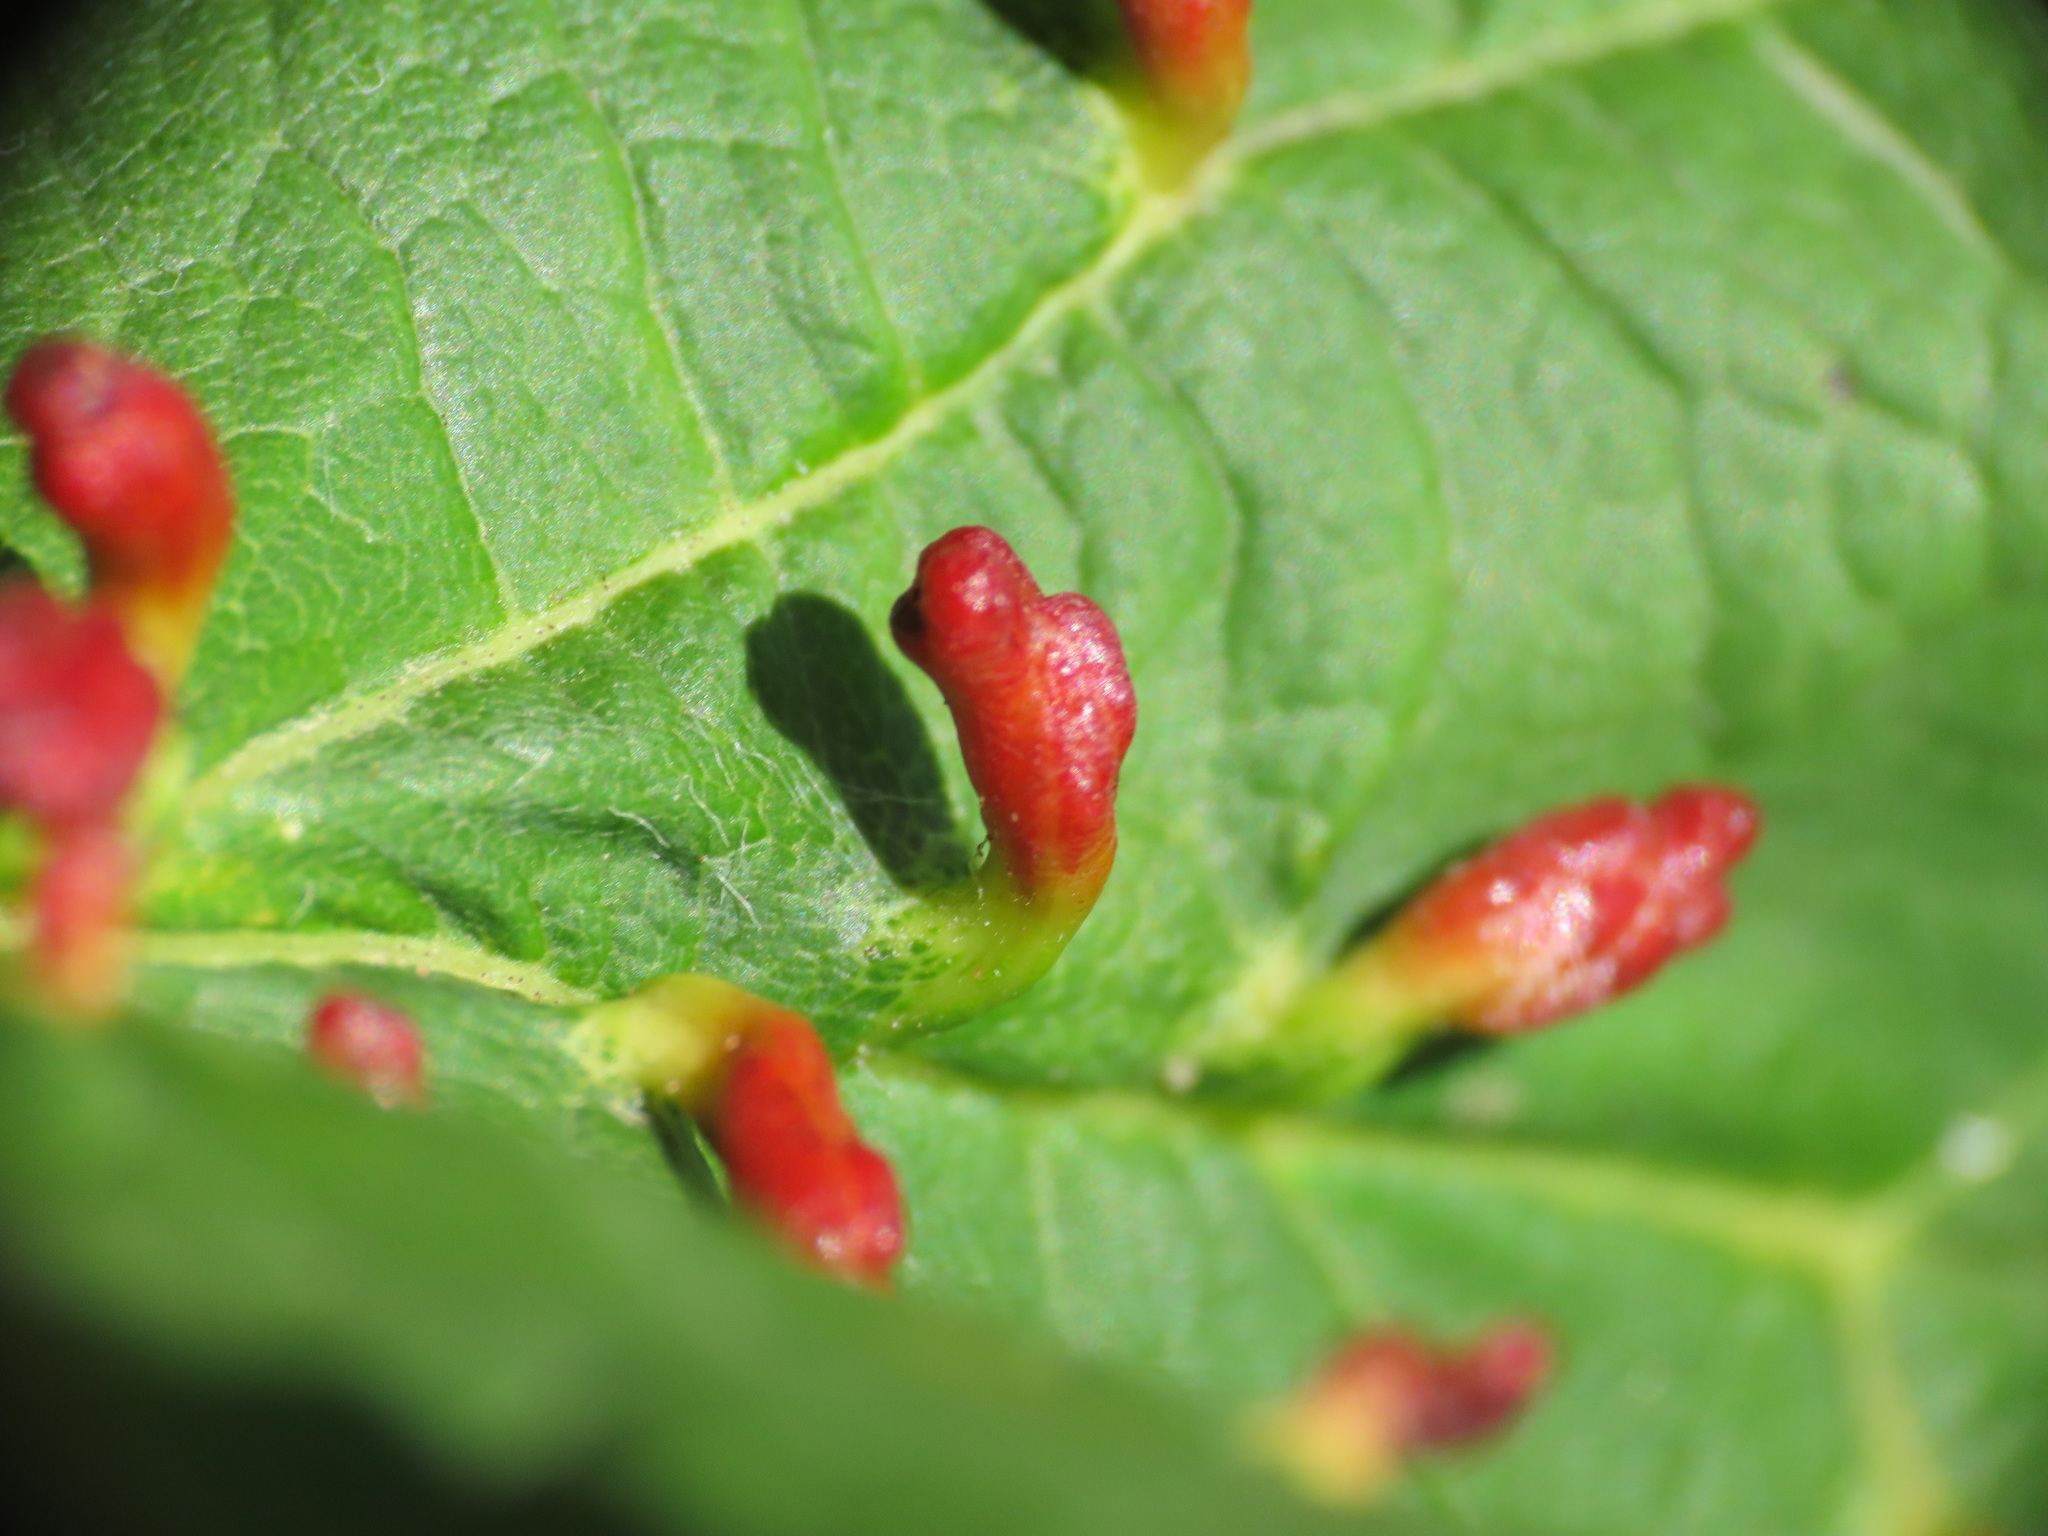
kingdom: Animalia
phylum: Arthropoda
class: Arachnida
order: Trombidiformes
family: Eriophyidae
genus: Aceria
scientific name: Aceria opulifolii
